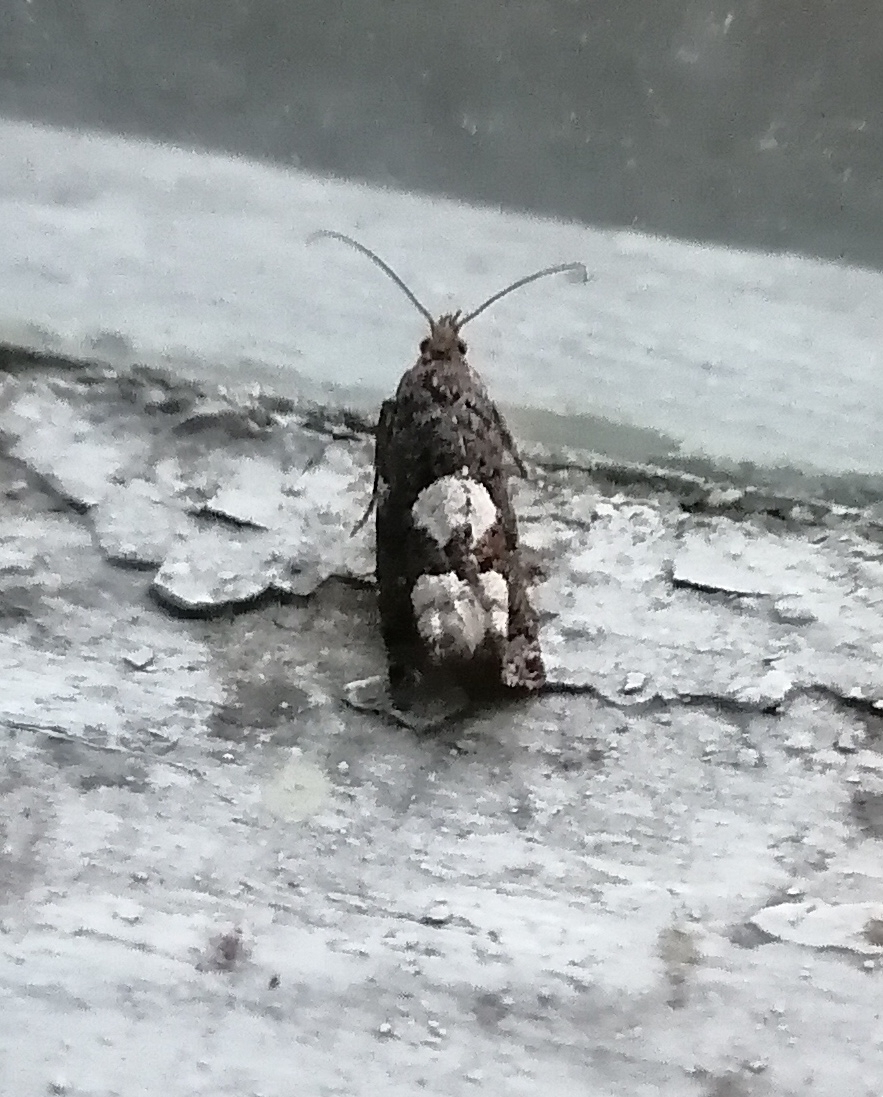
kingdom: Animalia
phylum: Arthropoda
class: Insecta
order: Lepidoptera
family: Tortricidae
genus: Epinotia
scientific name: Epinotia trigonella
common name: White-blotch bell
